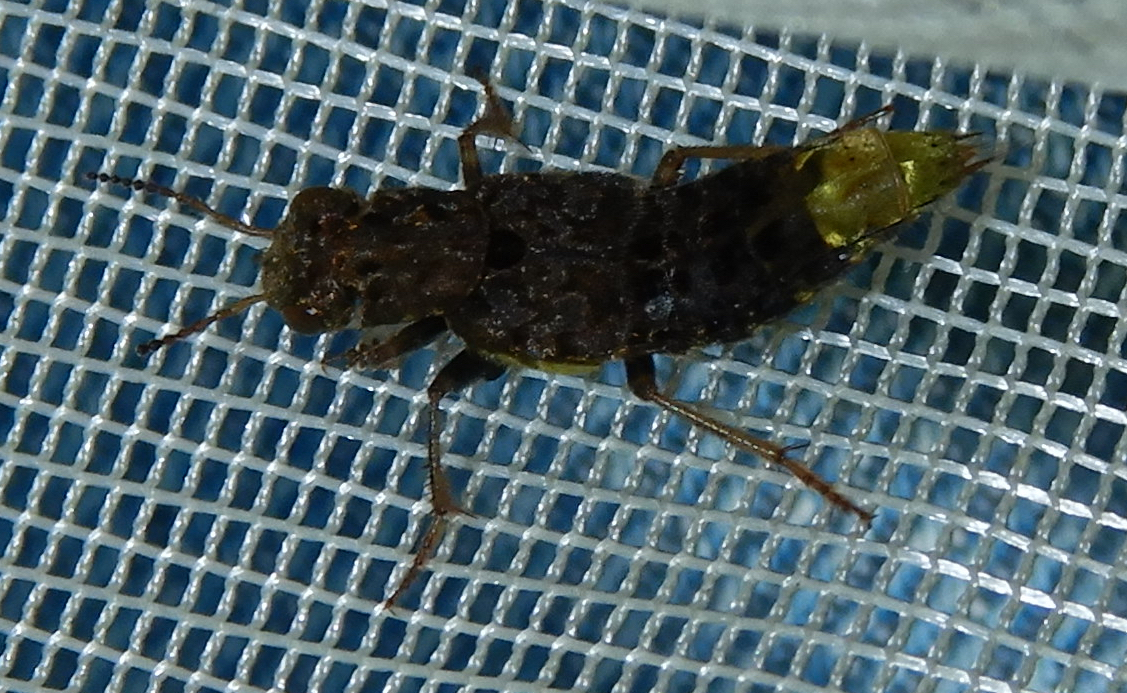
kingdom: Animalia
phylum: Arthropoda
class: Insecta
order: Coleoptera
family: Staphylinidae
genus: Ontholestes
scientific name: Ontholestes cingulatus
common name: Gold-and-brown rove beetle
